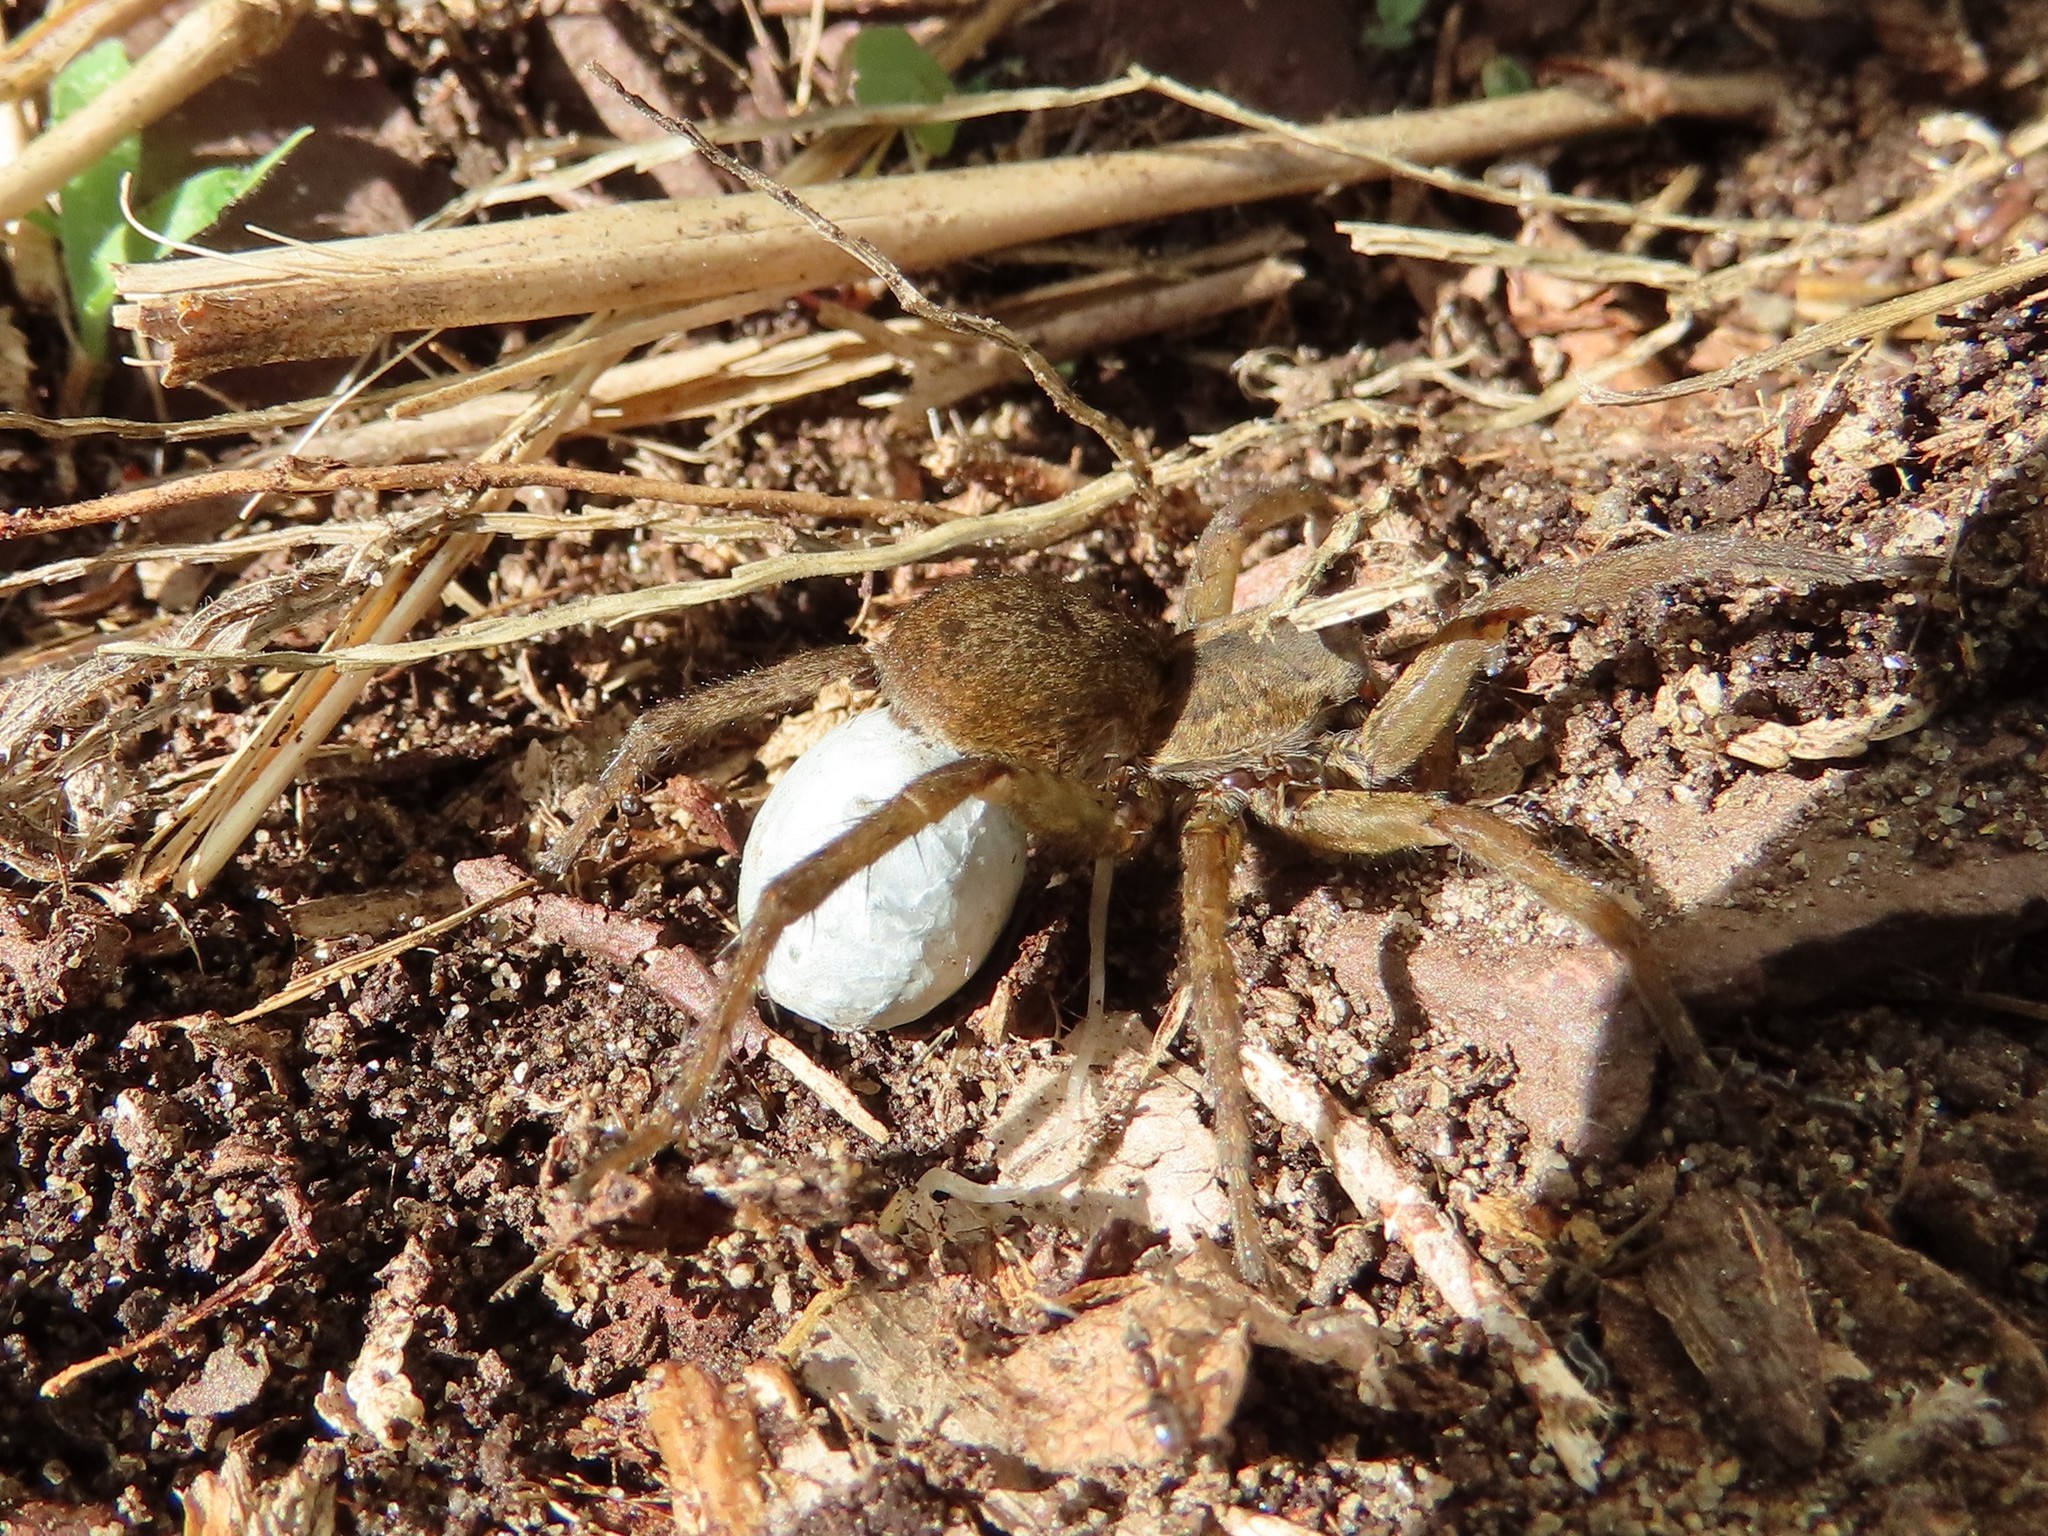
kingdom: Animalia
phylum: Arthropoda
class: Arachnida
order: Araneae
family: Lycosidae
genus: Tigrosa
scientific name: Tigrosa helluo
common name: Wetland giant wolf spider
